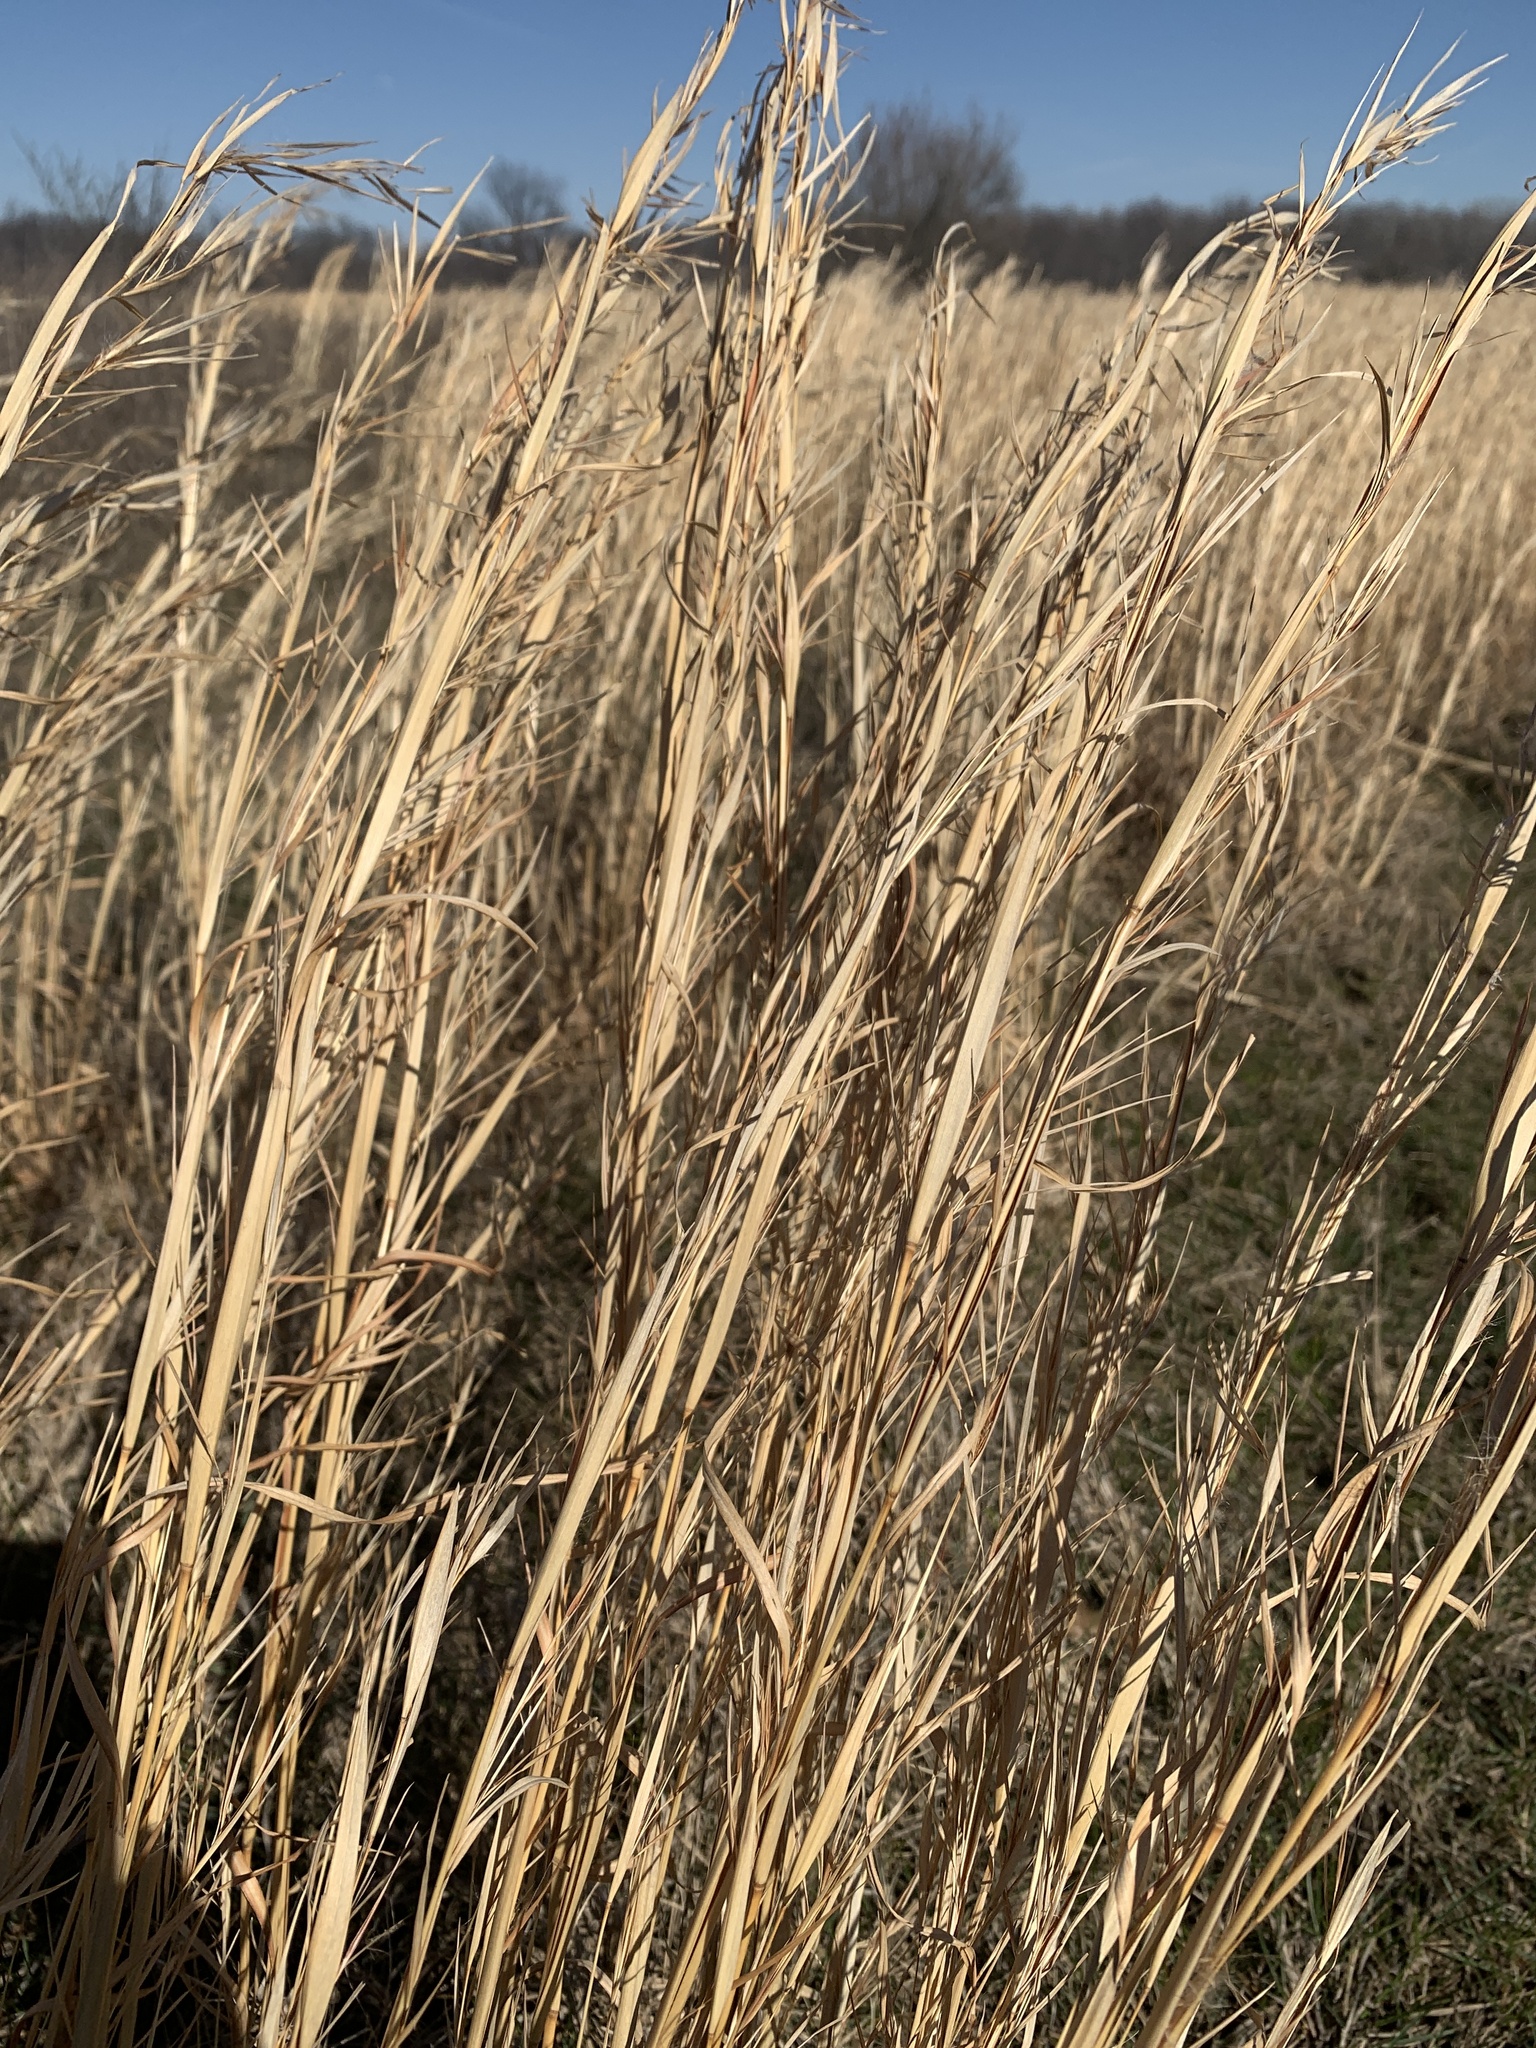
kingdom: Plantae
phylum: Tracheophyta
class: Liliopsida
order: Poales
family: Poaceae
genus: Andropogon
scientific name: Andropogon virginicus
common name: Broomsedge bluestem
